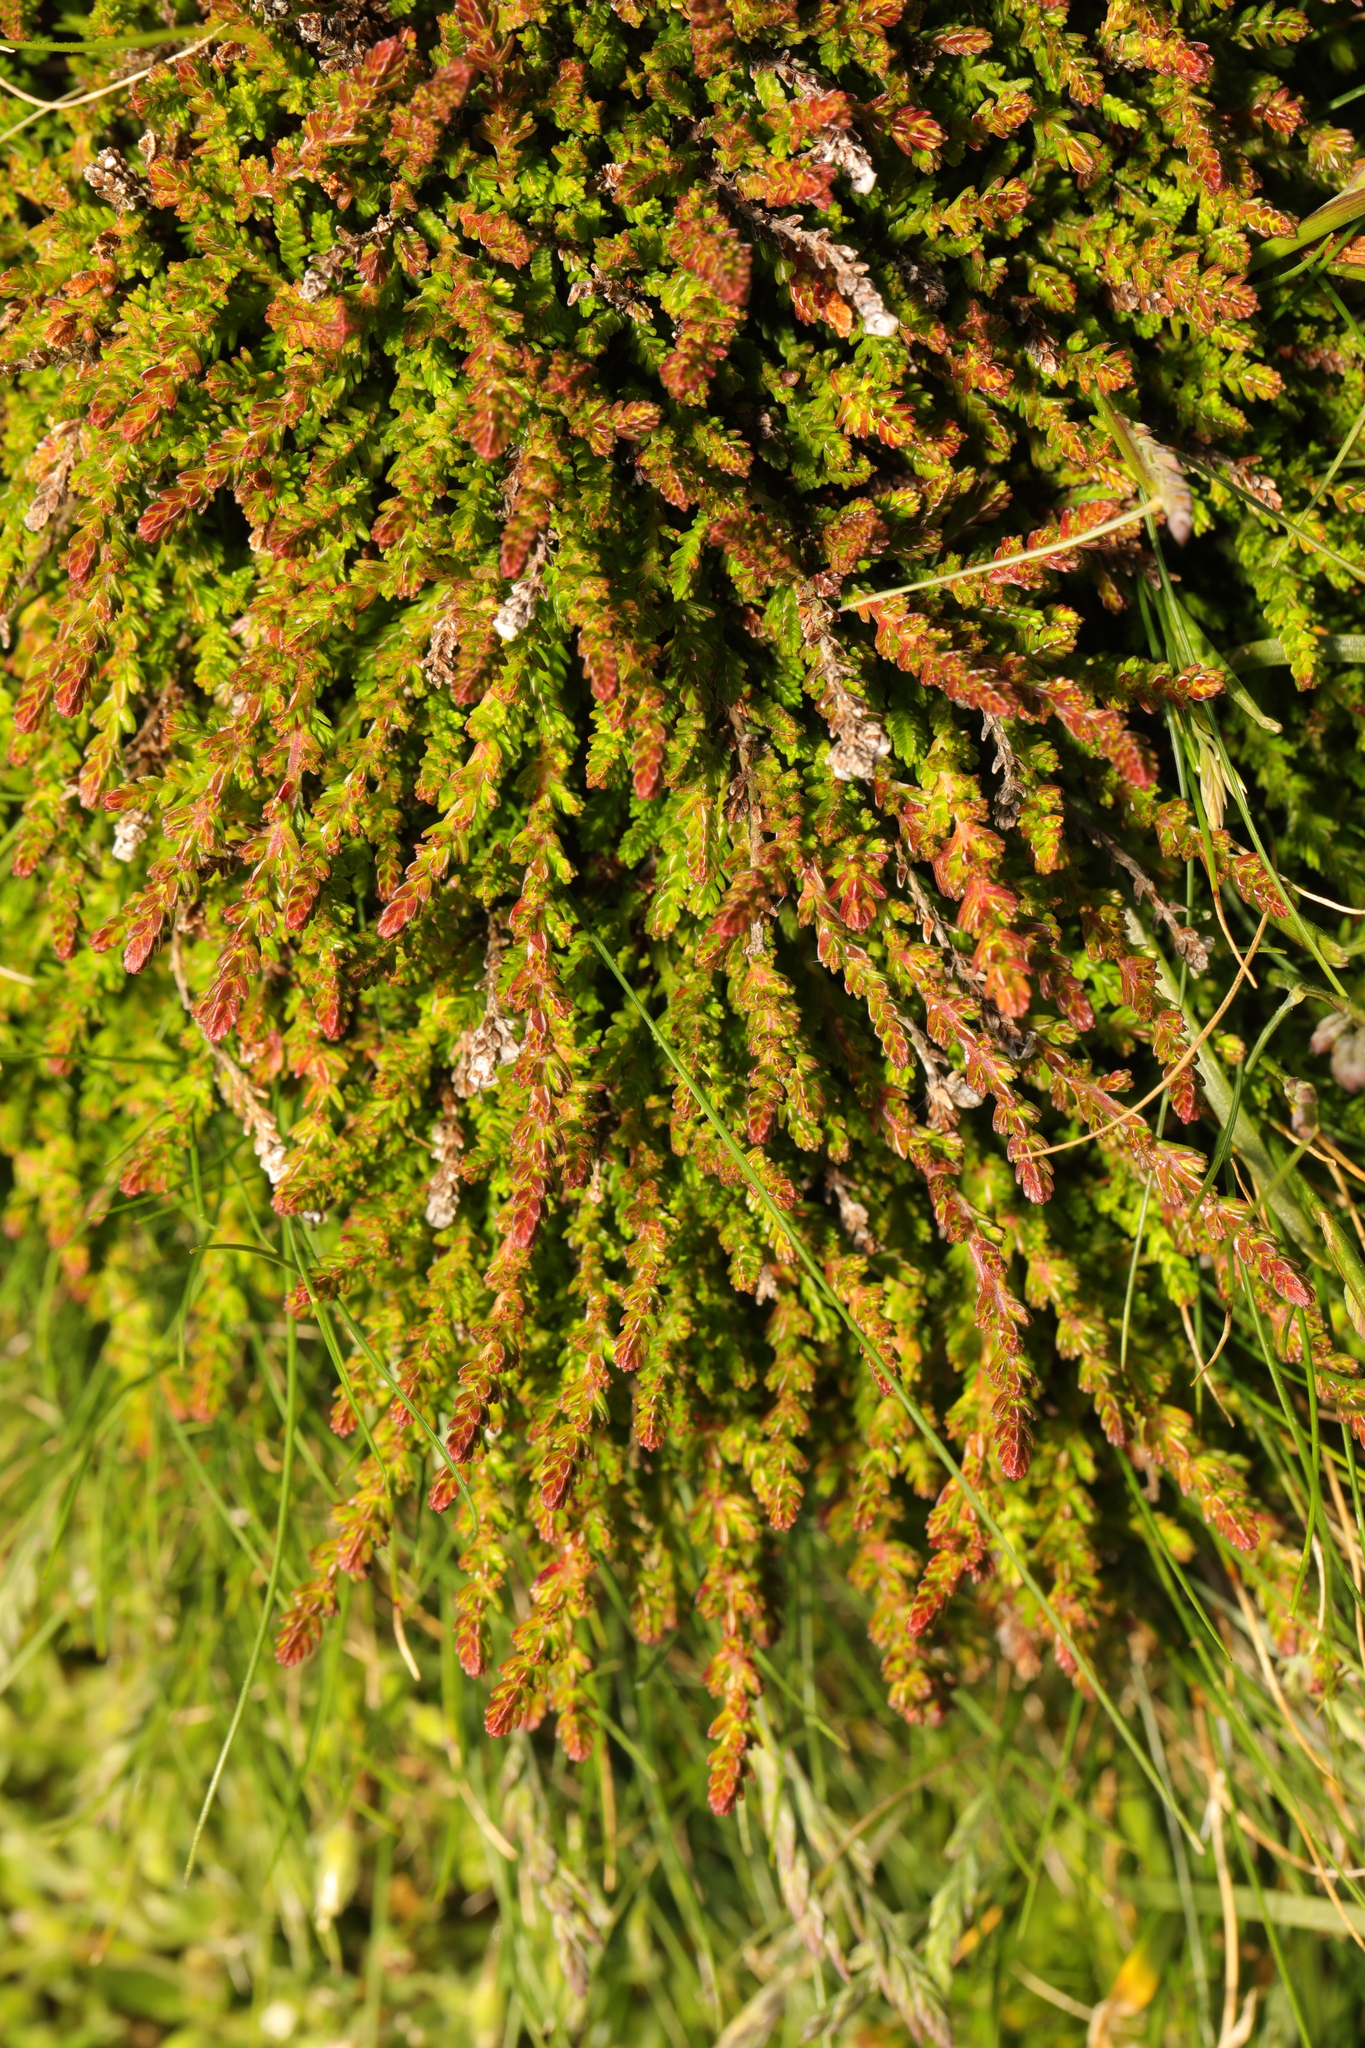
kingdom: Plantae
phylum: Tracheophyta
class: Magnoliopsida
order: Ericales
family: Ericaceae
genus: Calluna
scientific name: Calluna vulgaris
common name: Heather
